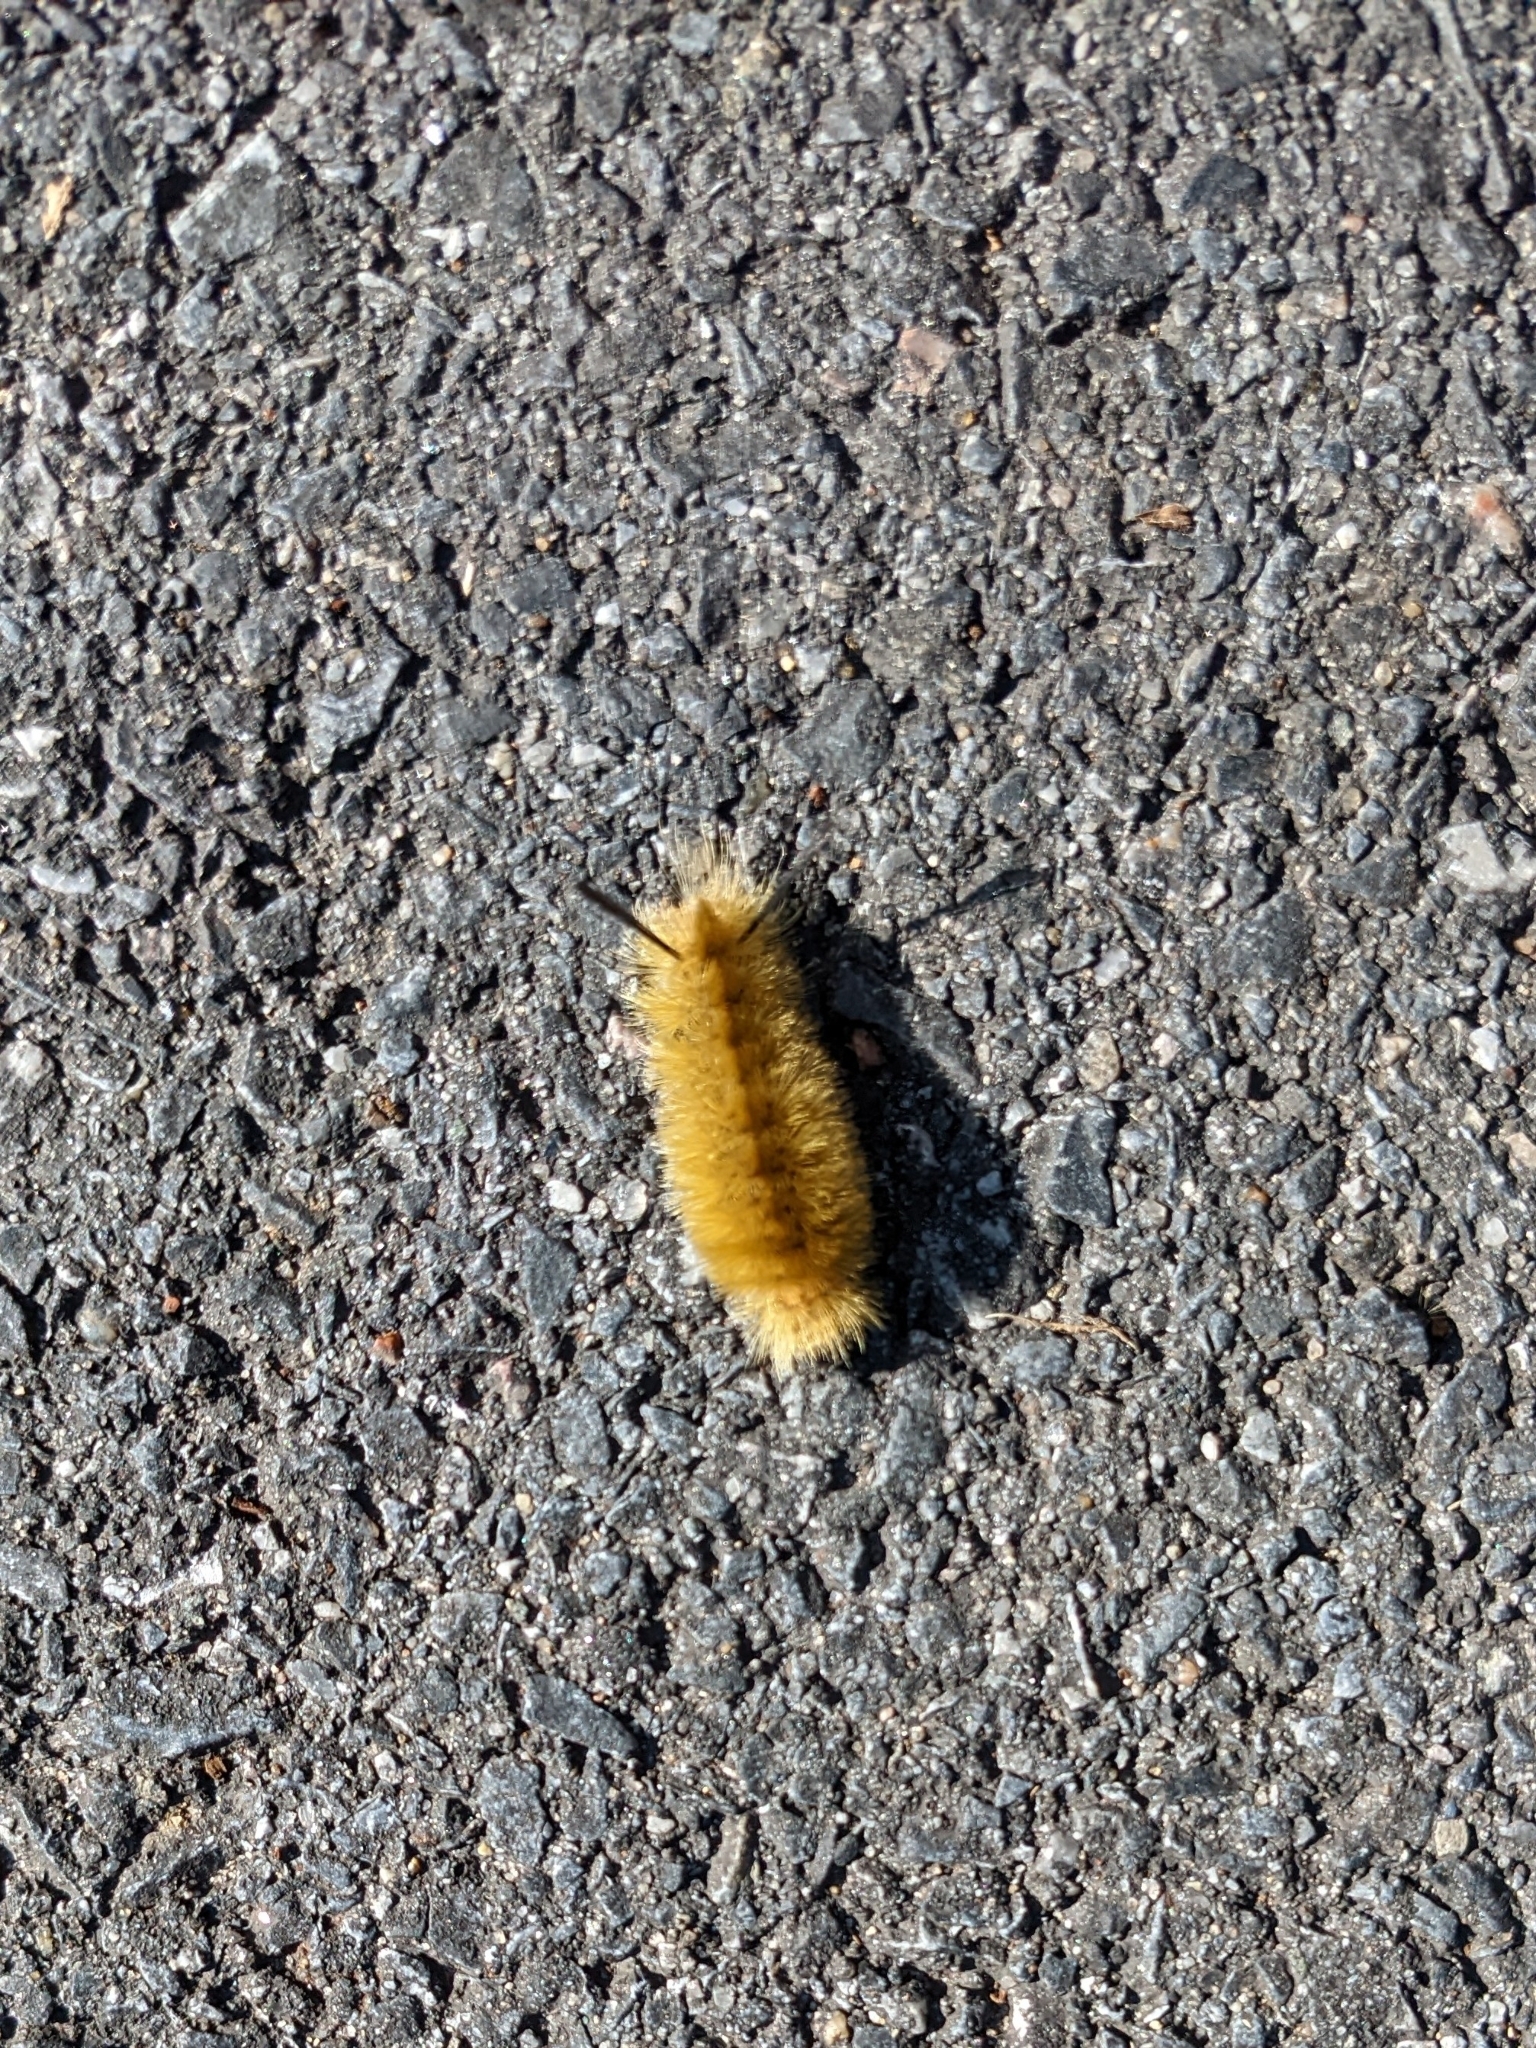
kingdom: Animalia
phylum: Arthropoda
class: Insecta
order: Lepidoptera
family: Erebidae
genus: Halysidota
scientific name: Halysidota tessellaris
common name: Banded tussock moth
